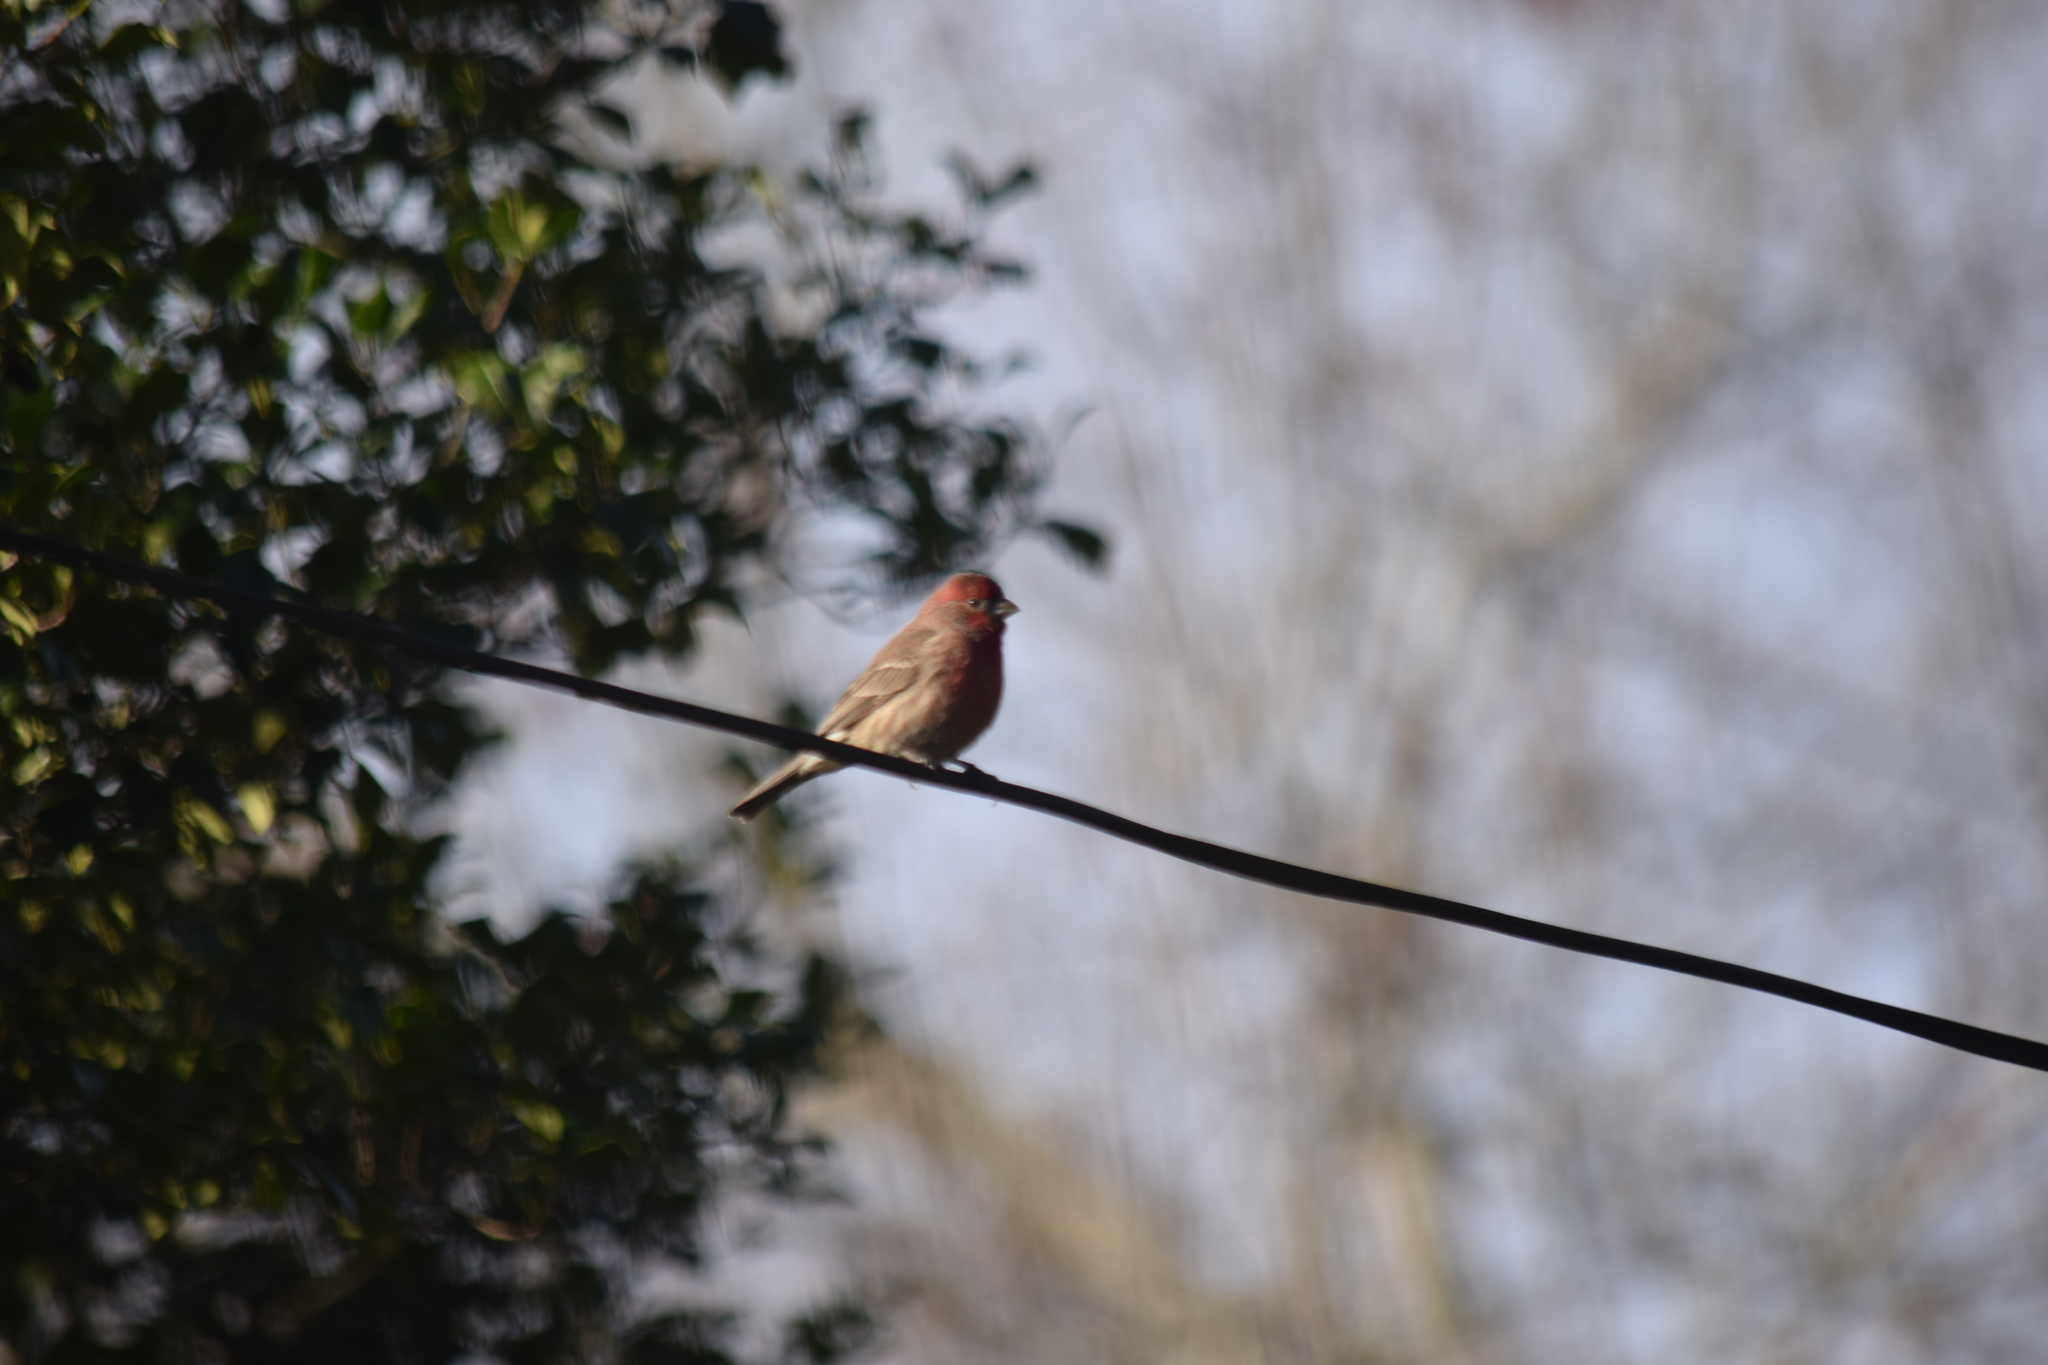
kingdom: Animalia
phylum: Chordata
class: Aves
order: Passeriformes
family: Fringillidae
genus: Haemorhous
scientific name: Haemorhous mexicanus
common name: House finch
